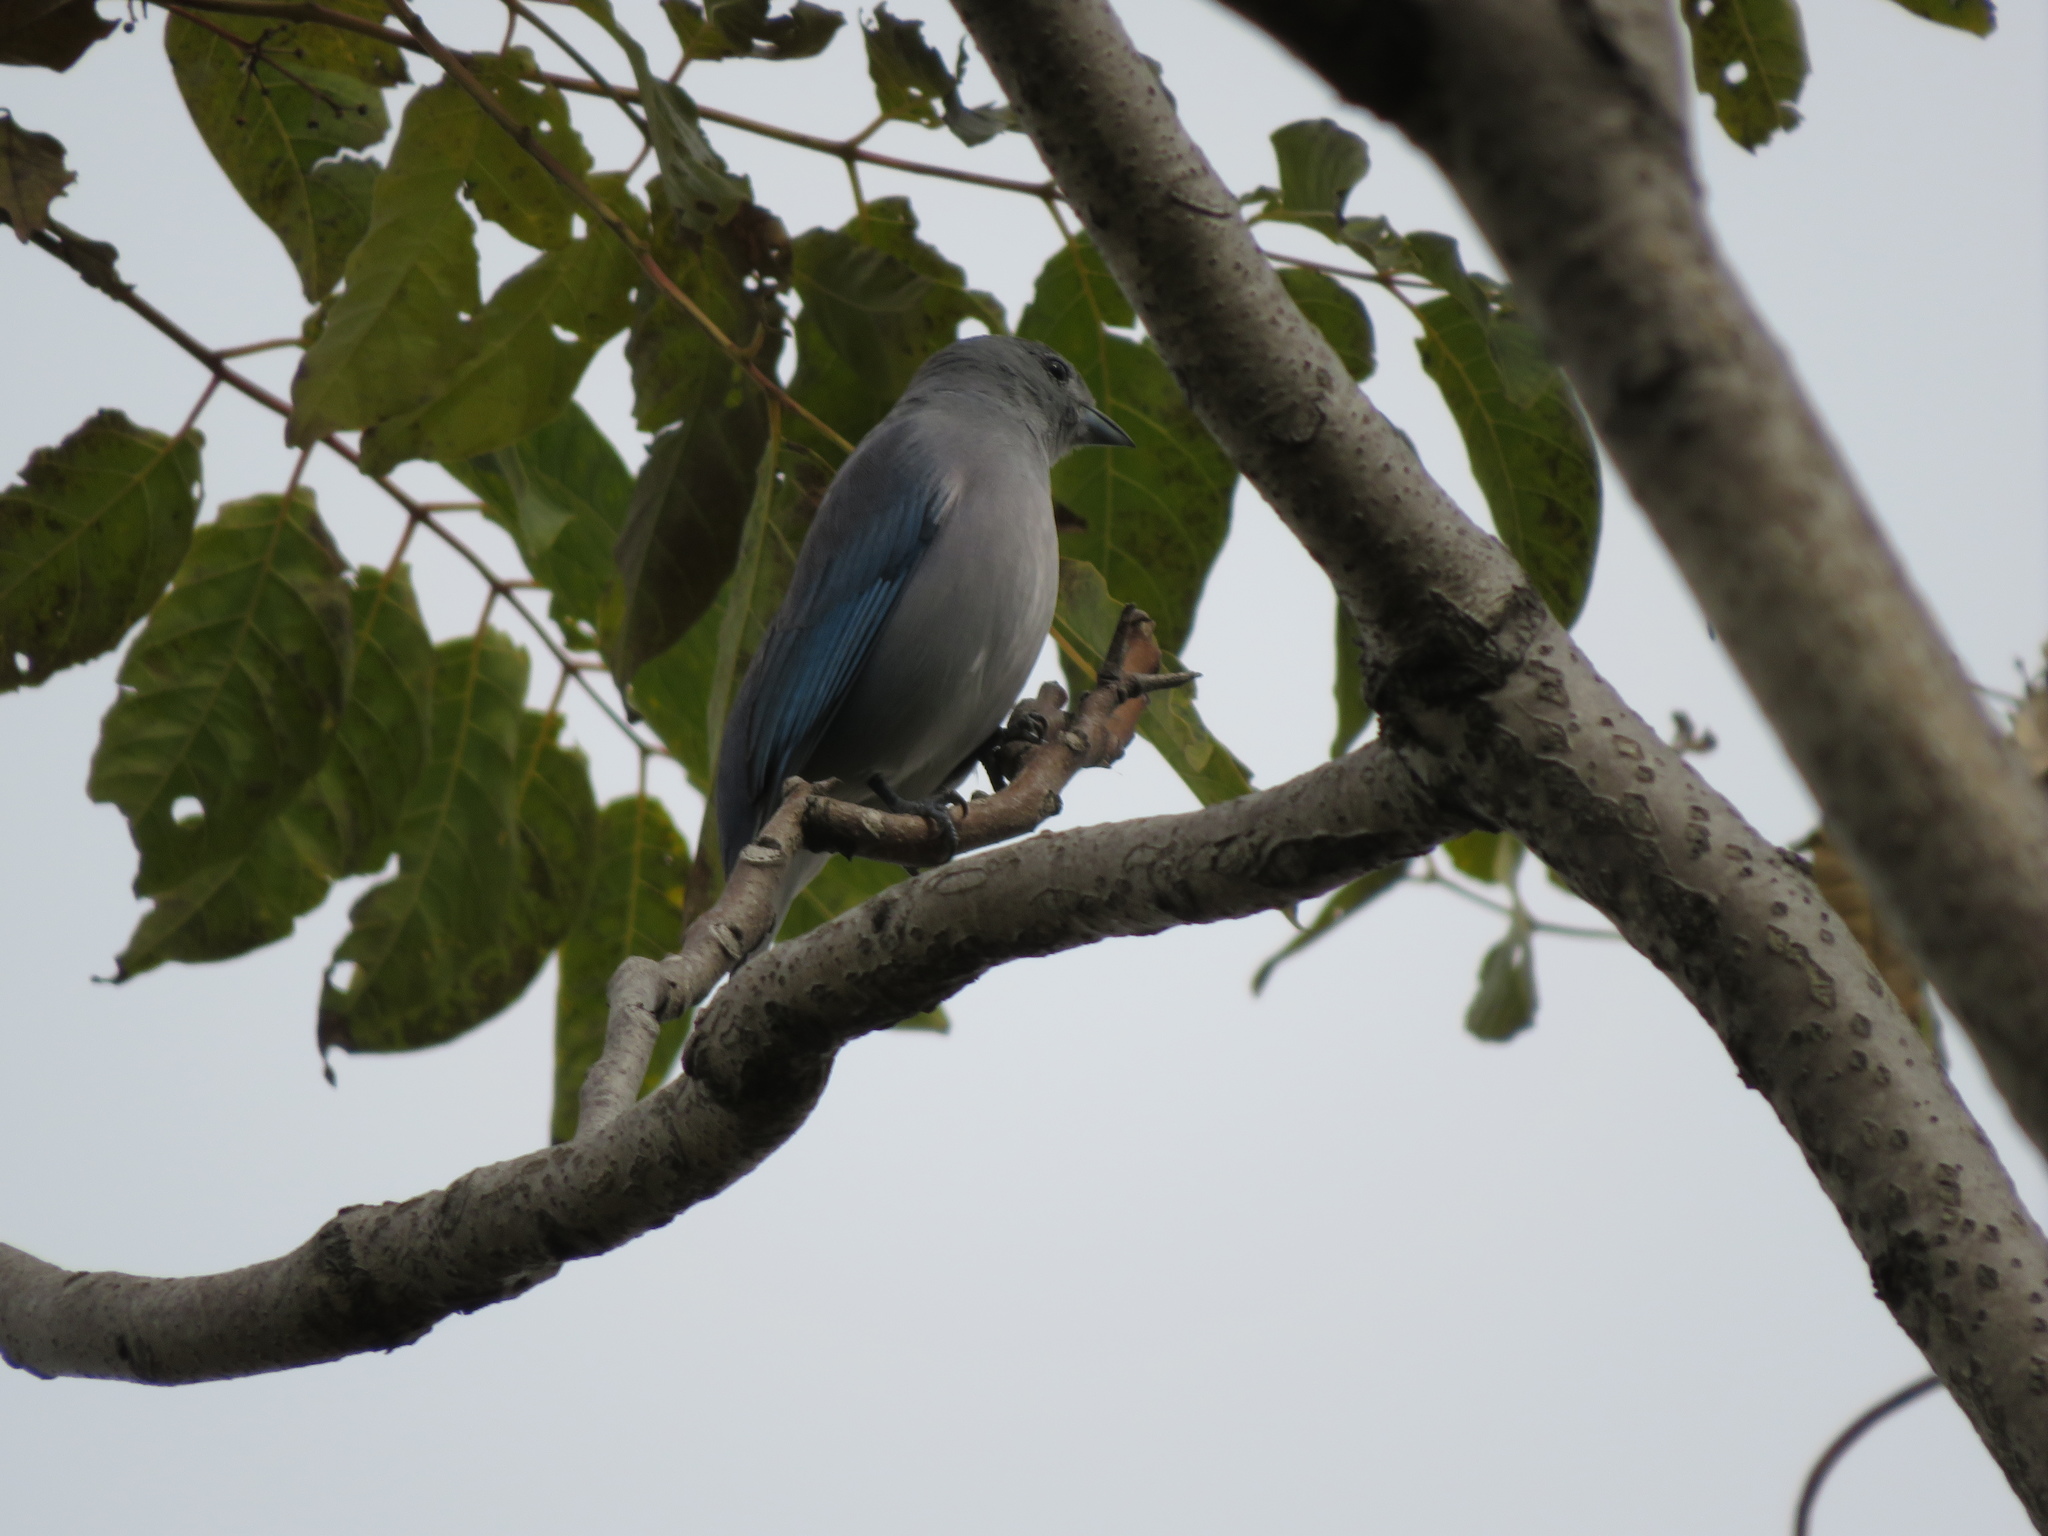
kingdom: Animalia
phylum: Chordata
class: Aves
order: Passeriformes
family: Thraupidae
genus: Thraupis
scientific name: Thraupis sayaca
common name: Sayaca tanager
